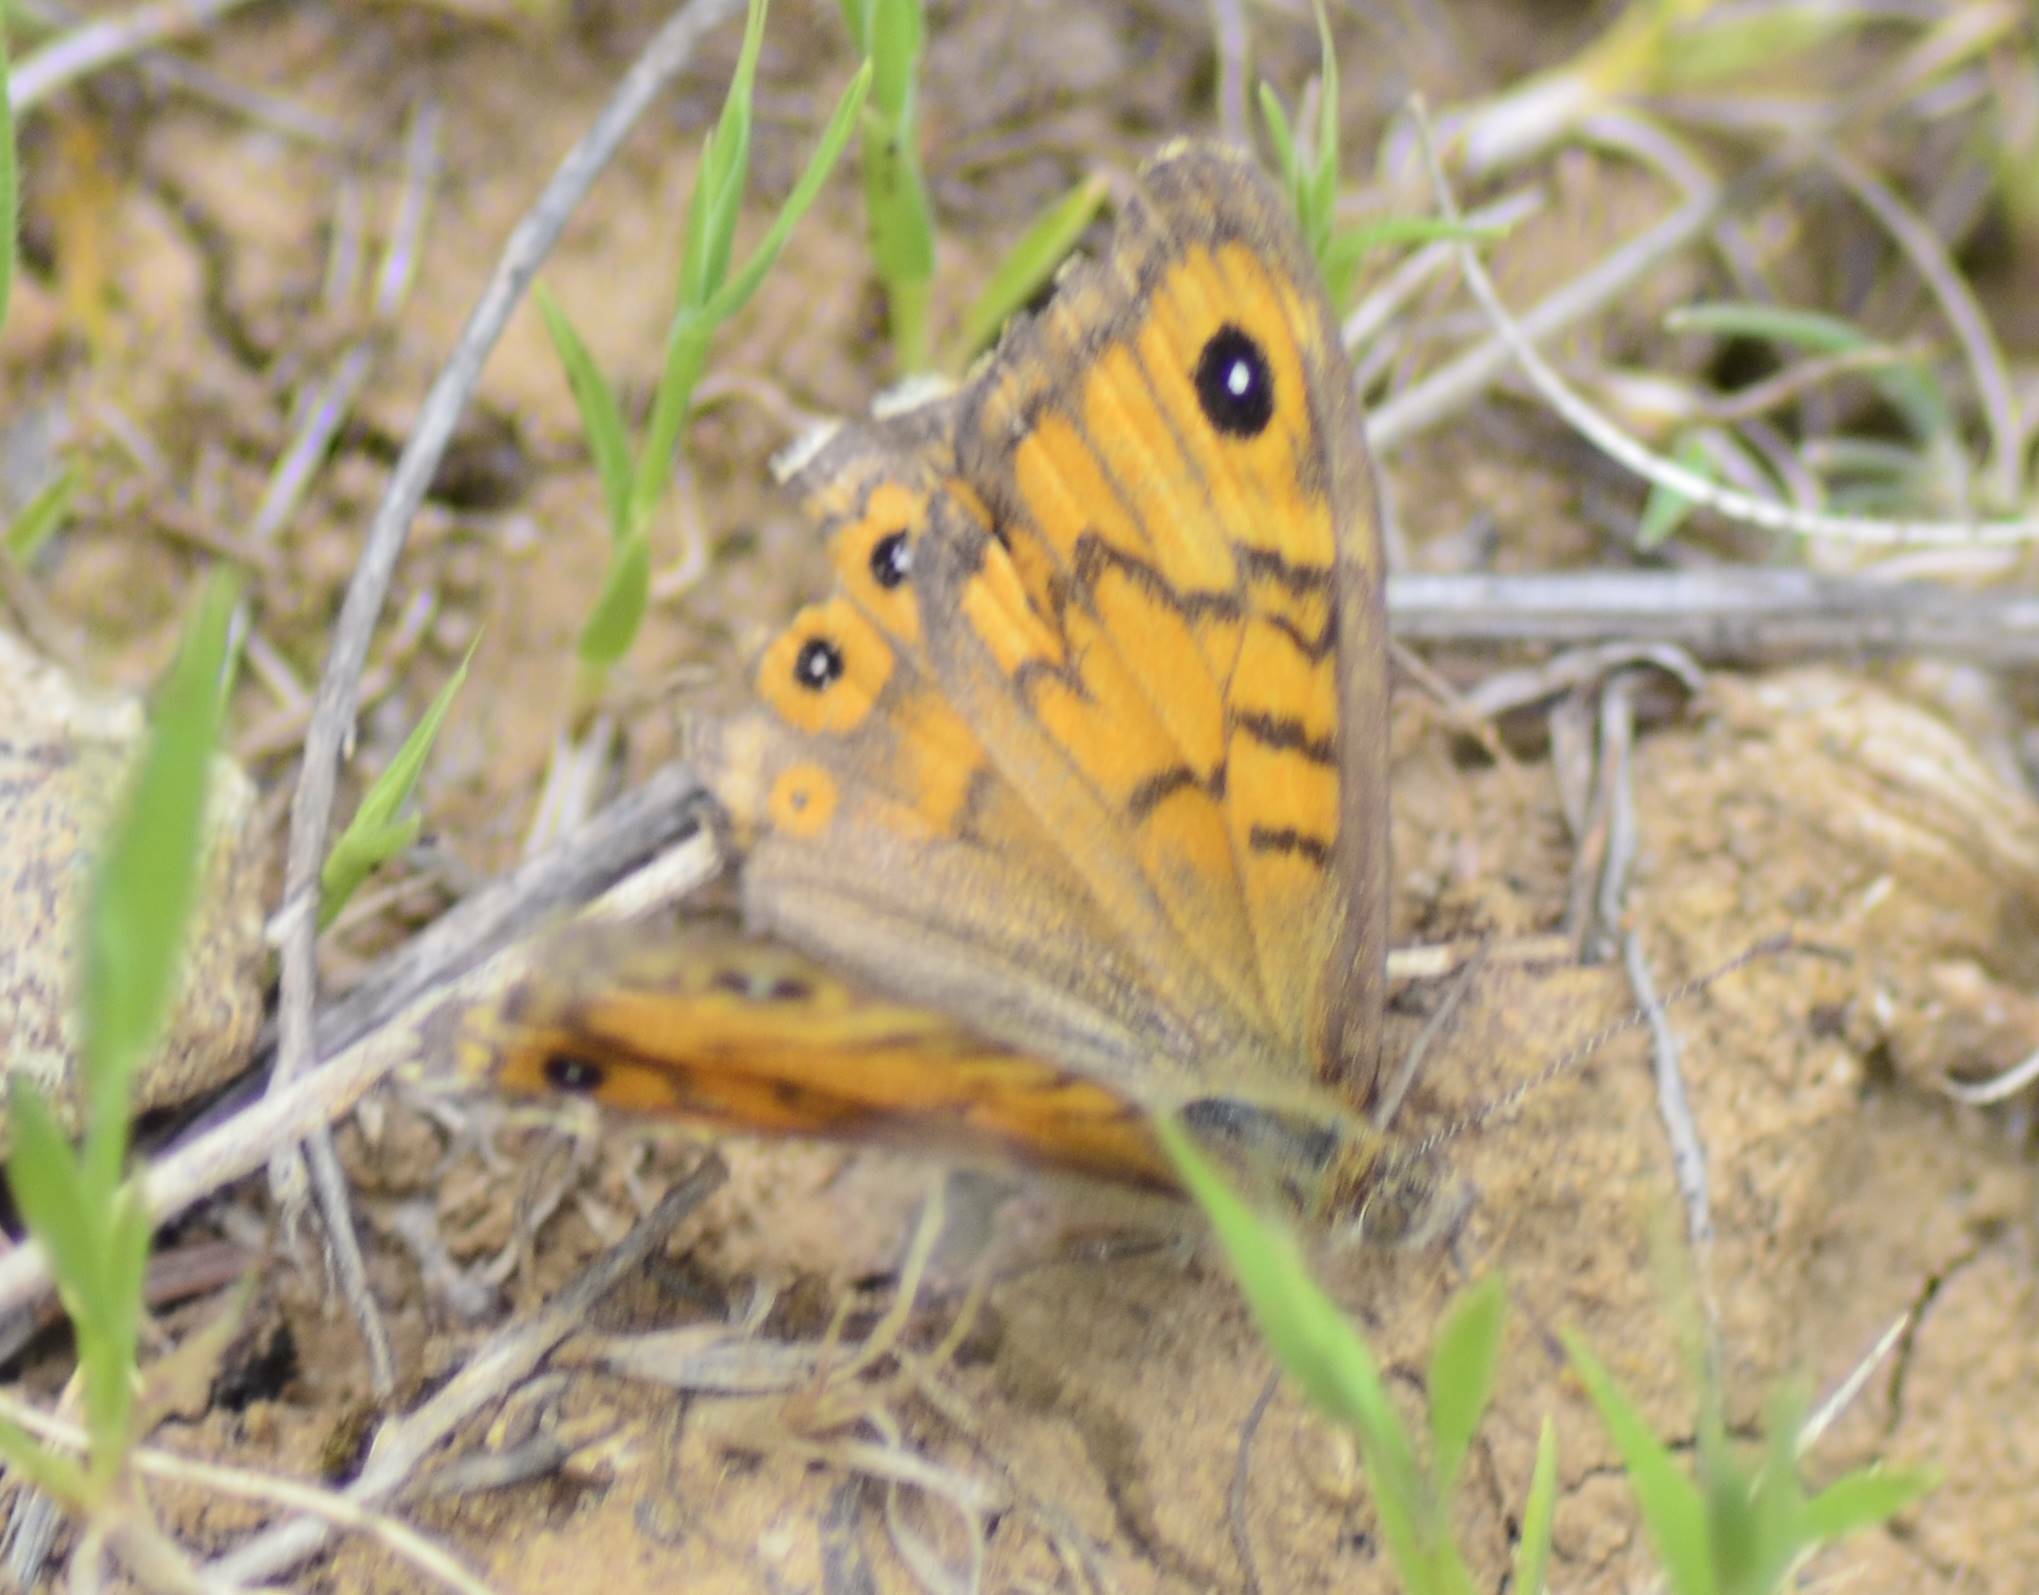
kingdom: Animalia
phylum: Arthropoda
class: Insecta
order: Lepidoptera
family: Nymphalidae
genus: Pararge
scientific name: Pararge Lasiommata megera
